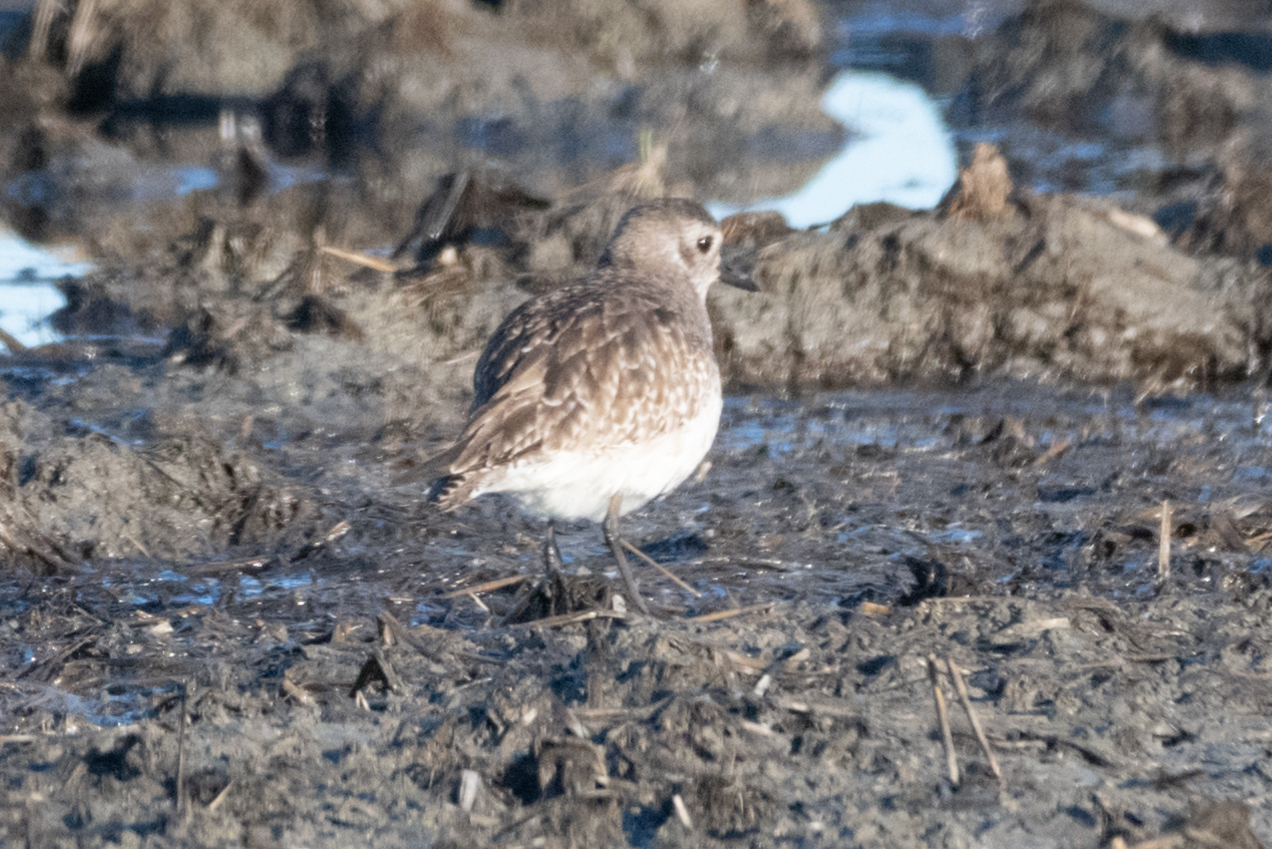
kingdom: Animalia
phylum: Chordata
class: Aves
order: Charadriiformes
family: Charadriidae
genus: Pluvialis
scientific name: Pluvialis squatarola
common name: Grey plover
